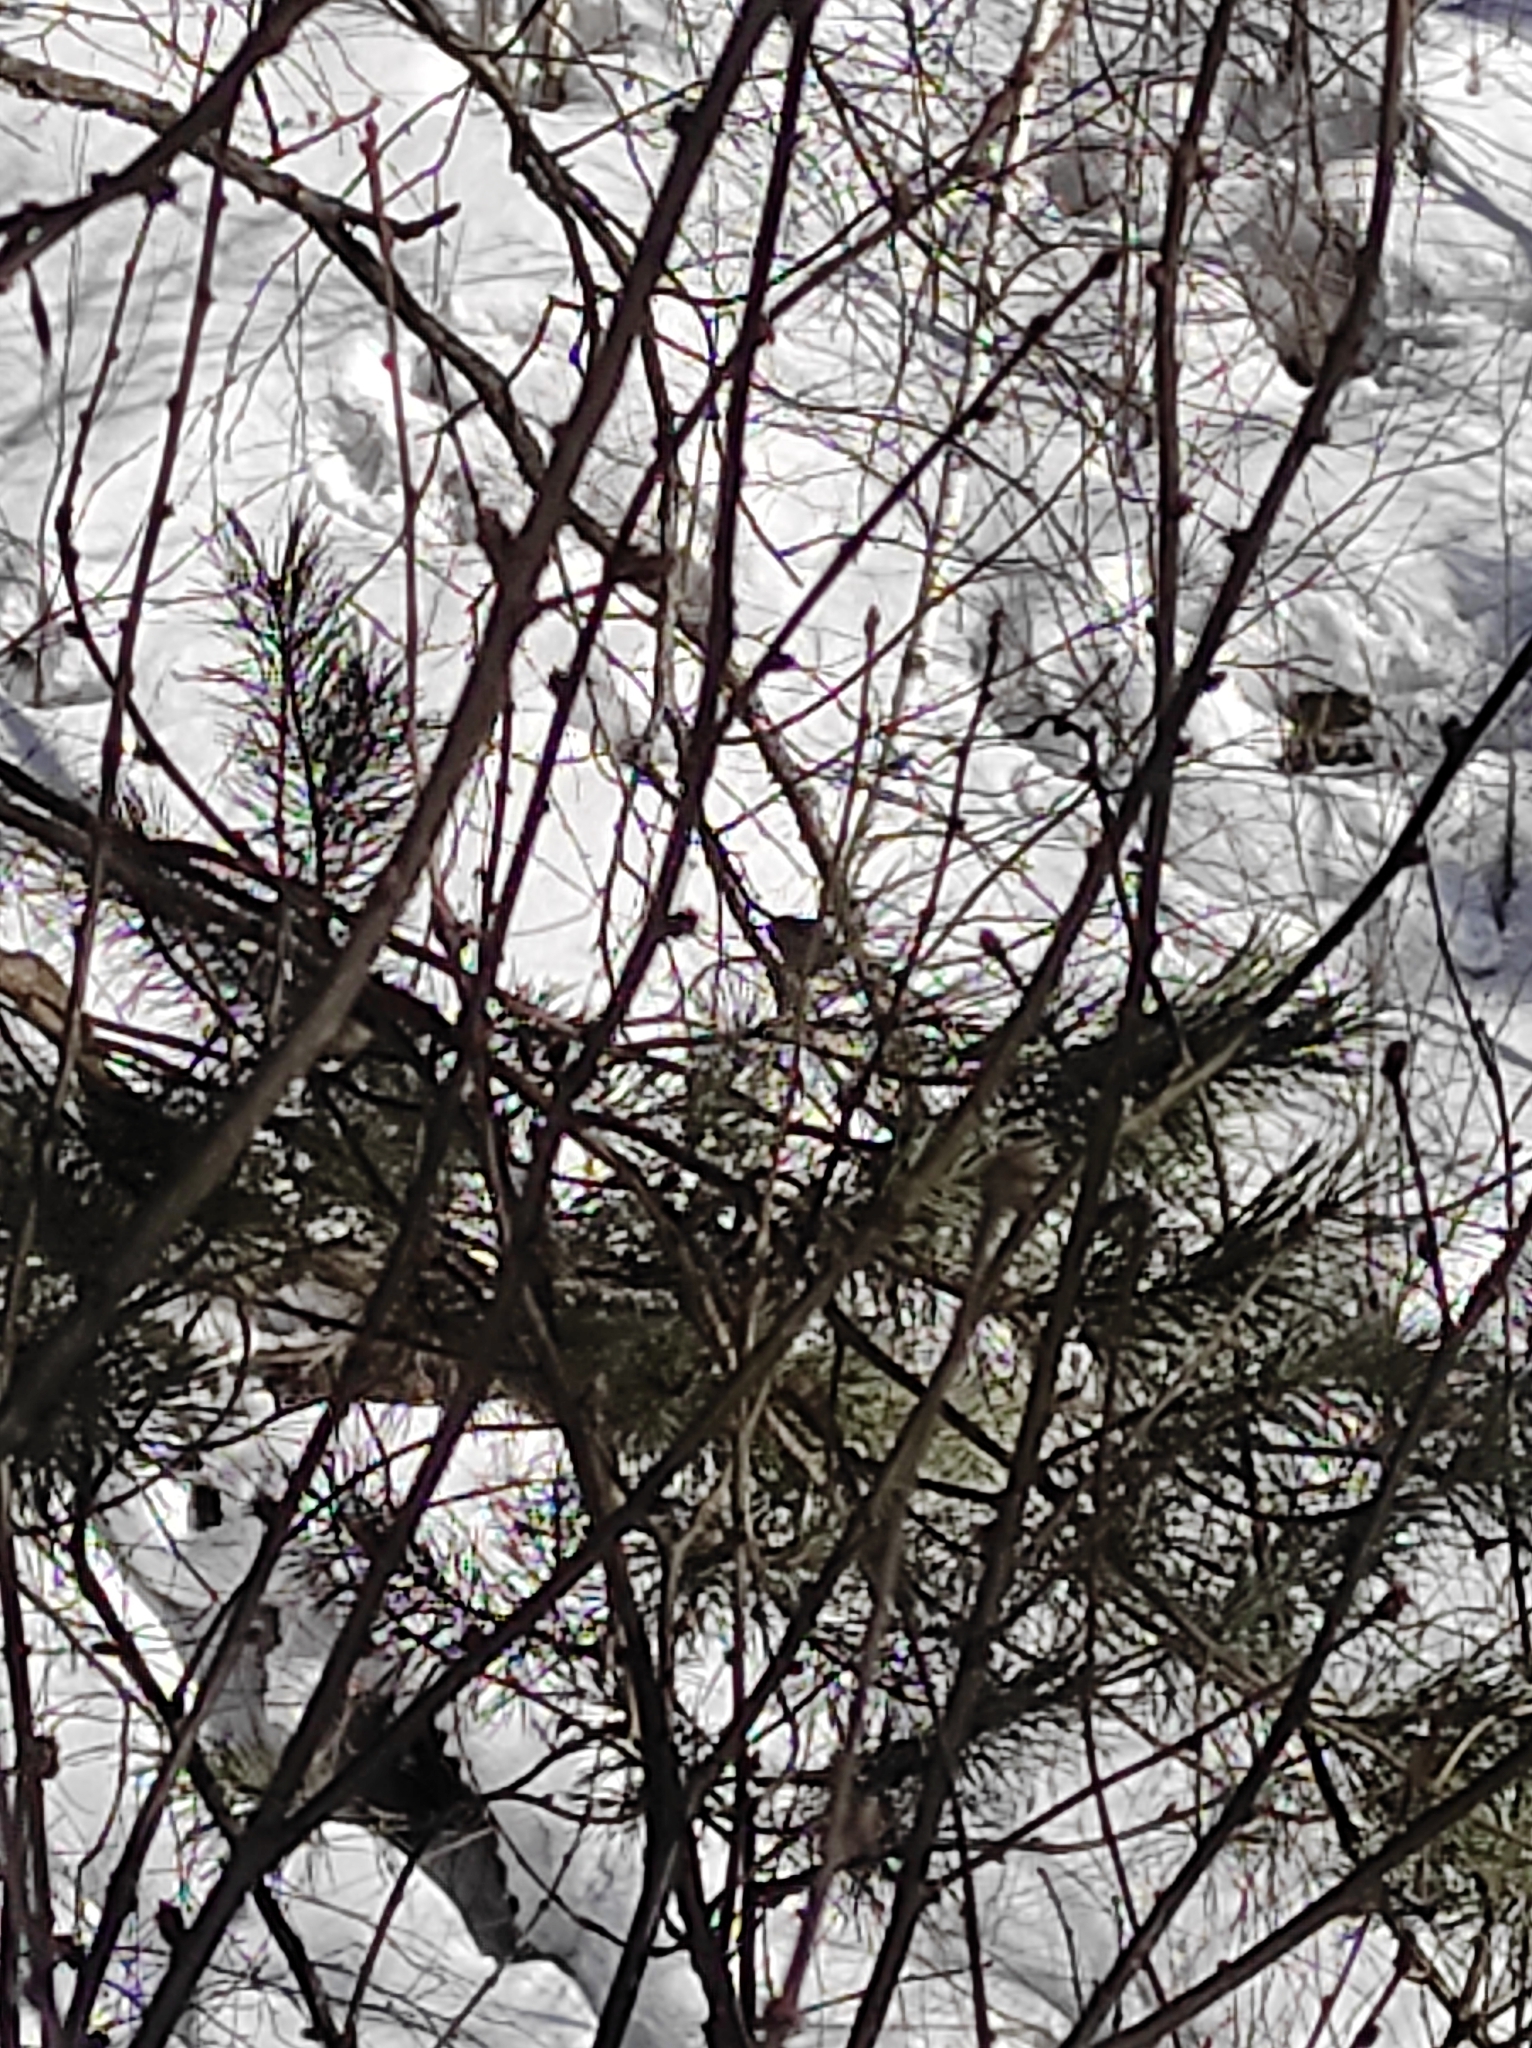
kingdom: Animalia
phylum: Chordata
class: Aves
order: Passeriformes
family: Aegithalidae
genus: Aegithalos
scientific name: Aegithalos caudatus
